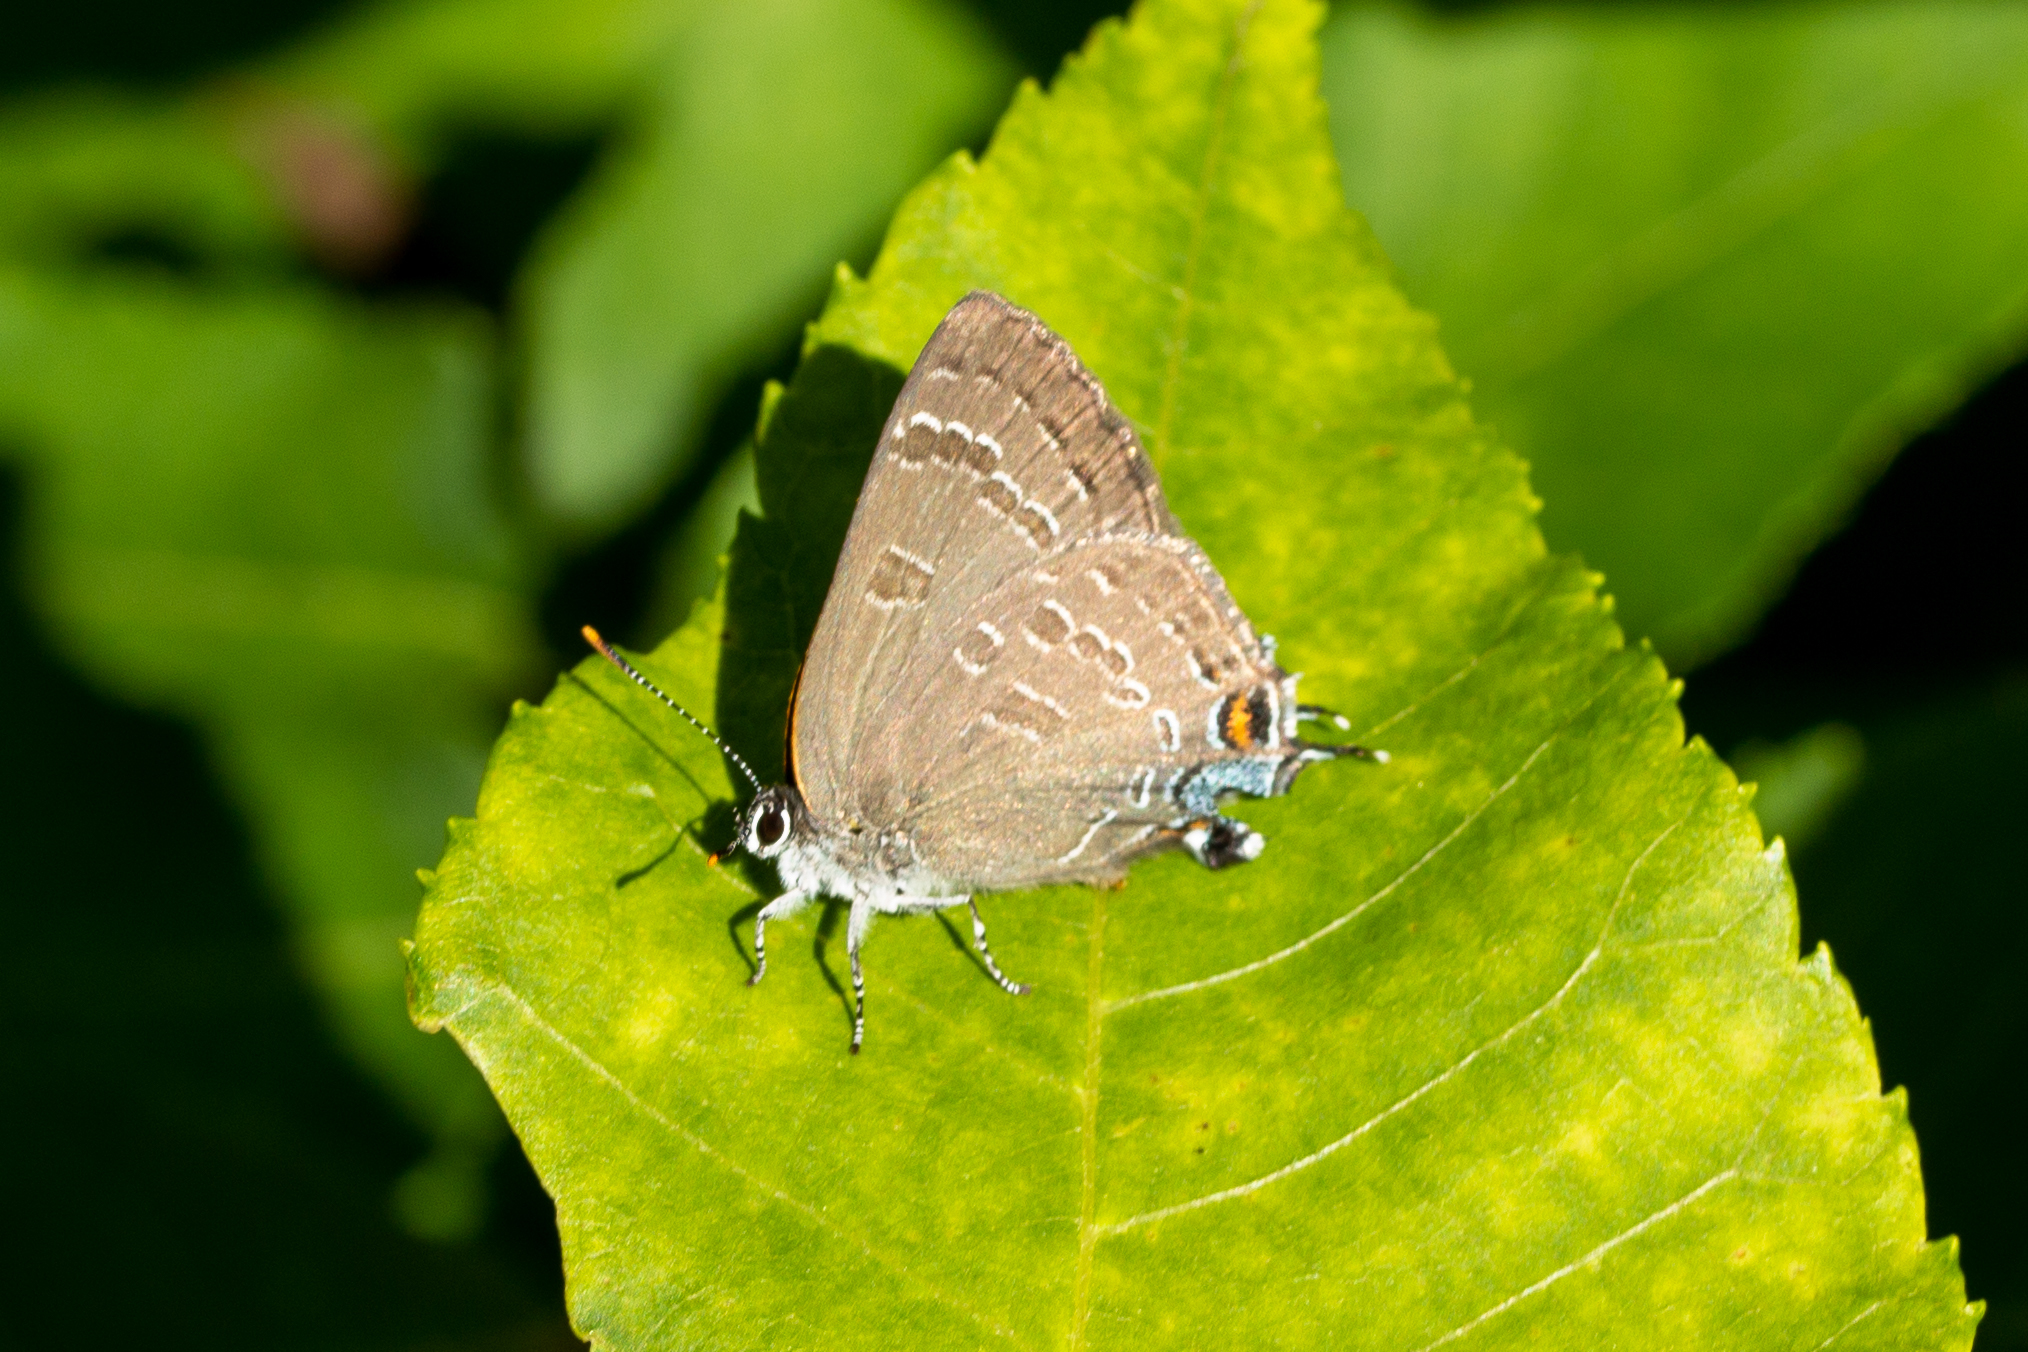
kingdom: Animalia
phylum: Arthropoda
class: Insecta
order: Lepidoptera
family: Lycaenidae
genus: Strymon
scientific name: Strymon caryaevorus
